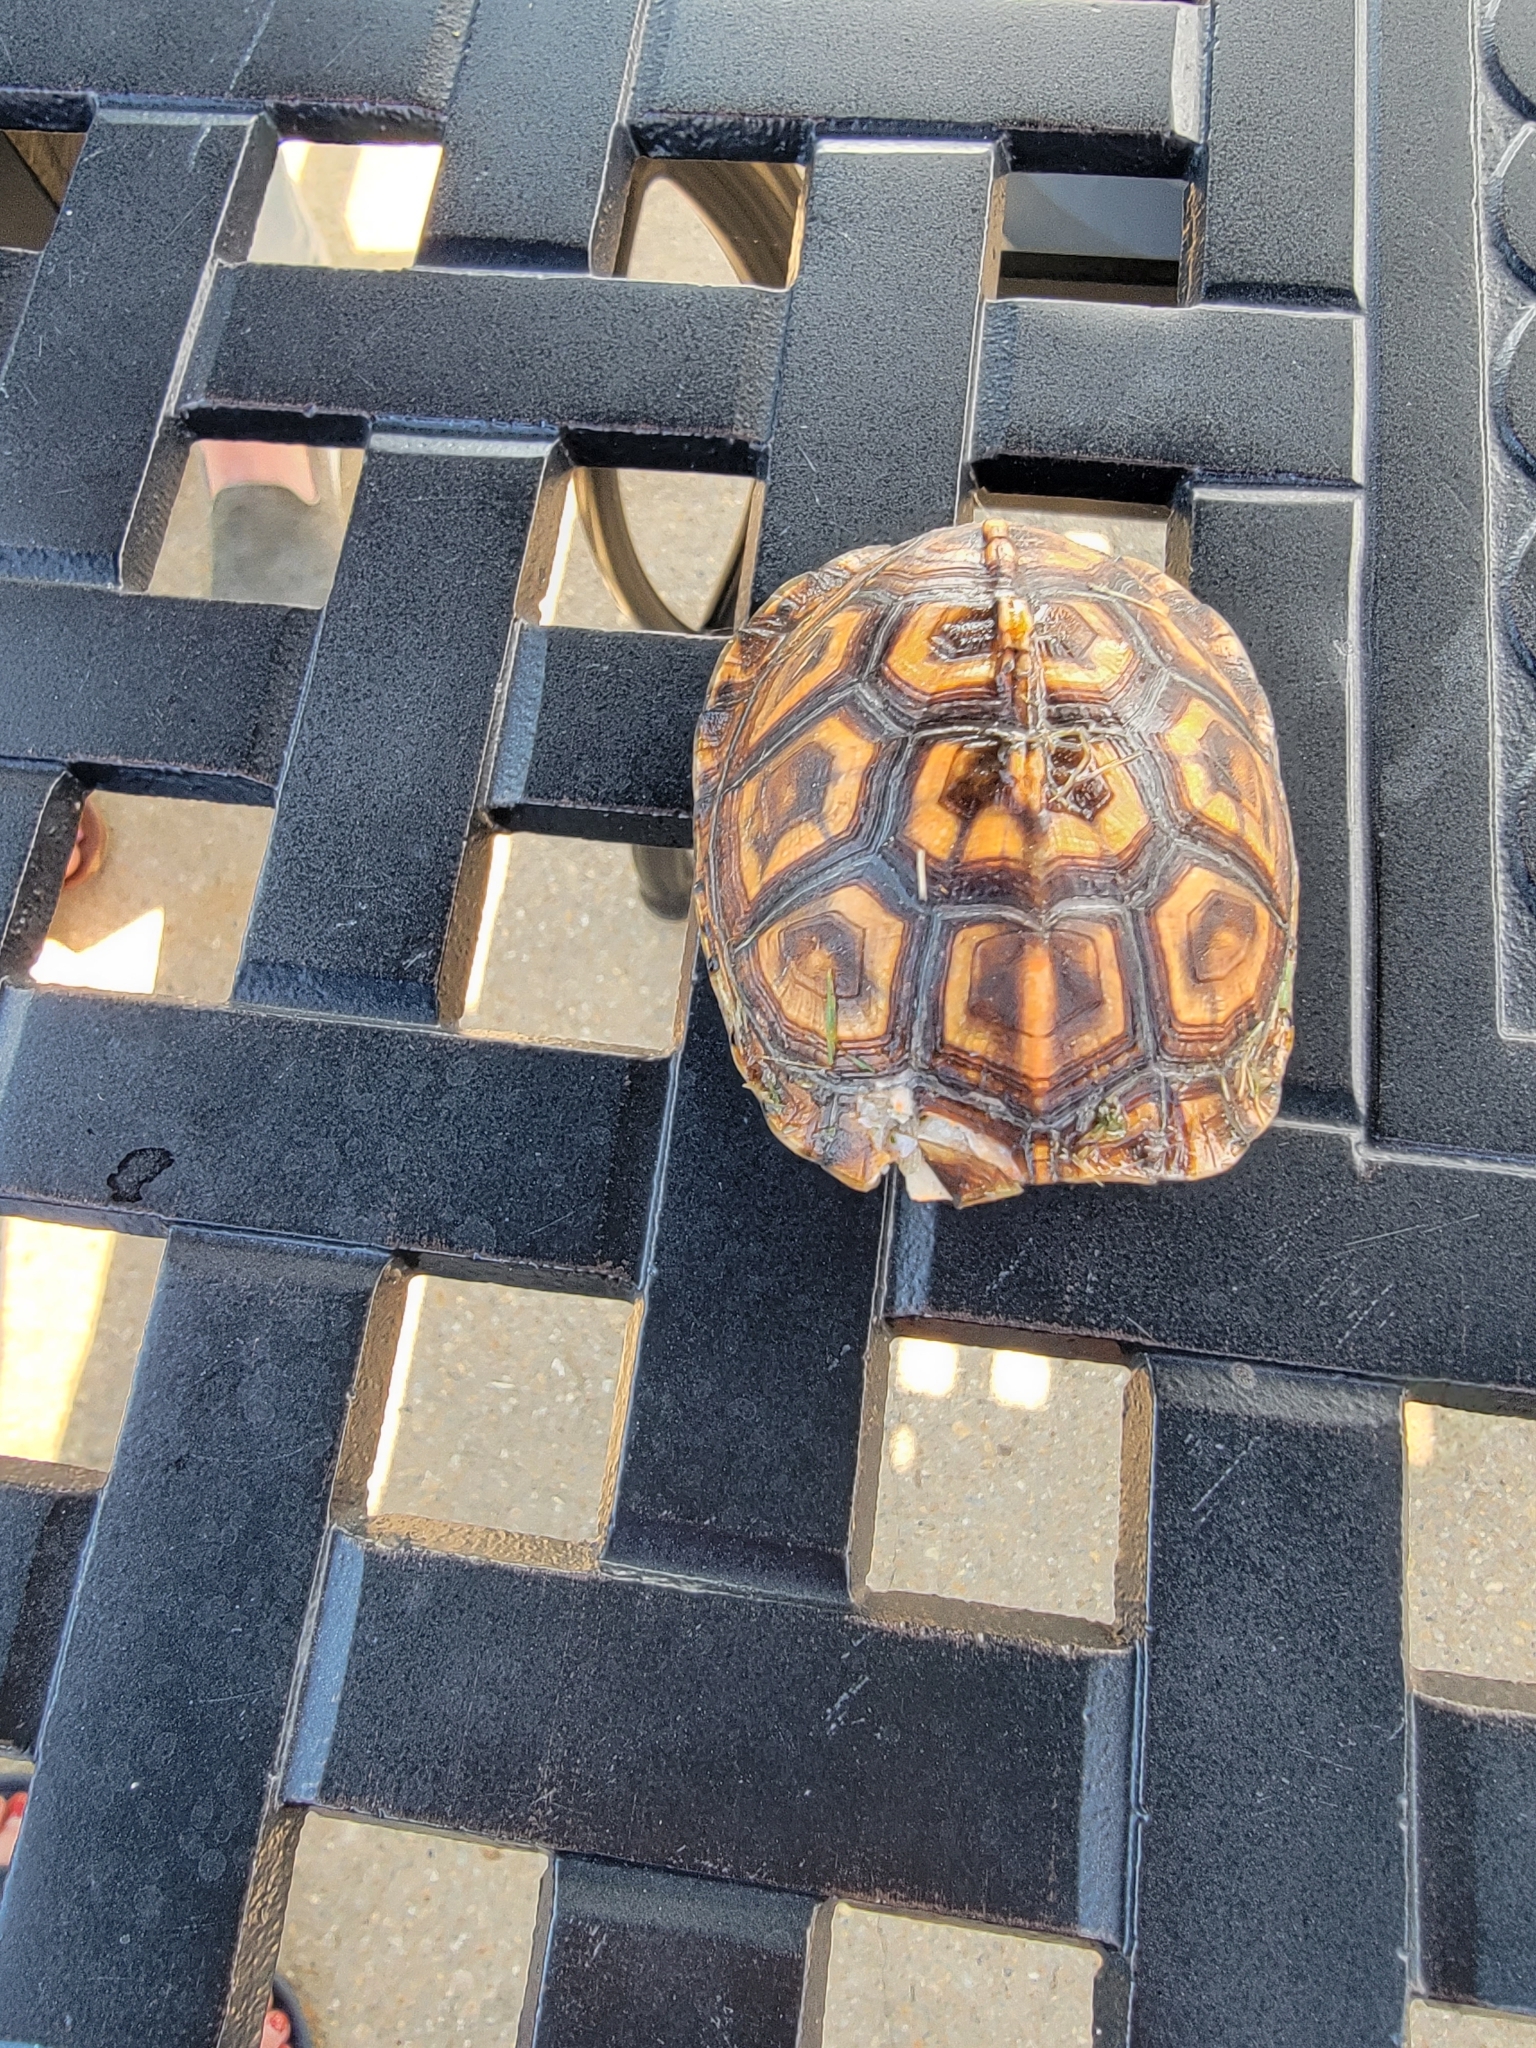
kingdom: Animalia
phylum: Chordata
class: Testudines
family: Emydidae
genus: Terrapene
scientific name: Terrapene carolina
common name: Common box turtle
